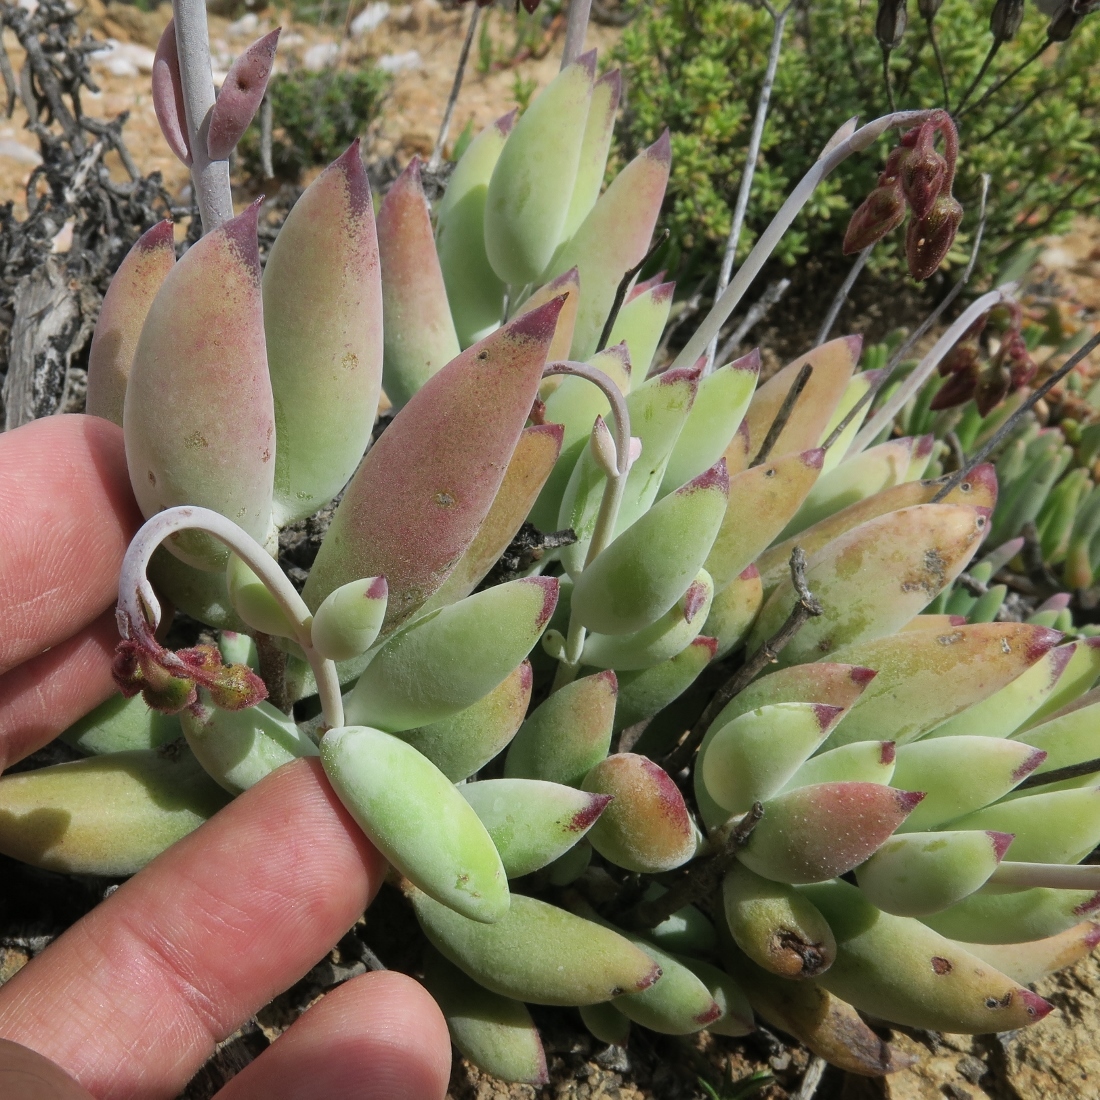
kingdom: Plantae
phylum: Tracheophyta
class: Magnoliopsida
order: Saxifragales
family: Crassulaceae
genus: Cotyledon
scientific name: Cotyledon papillaris
